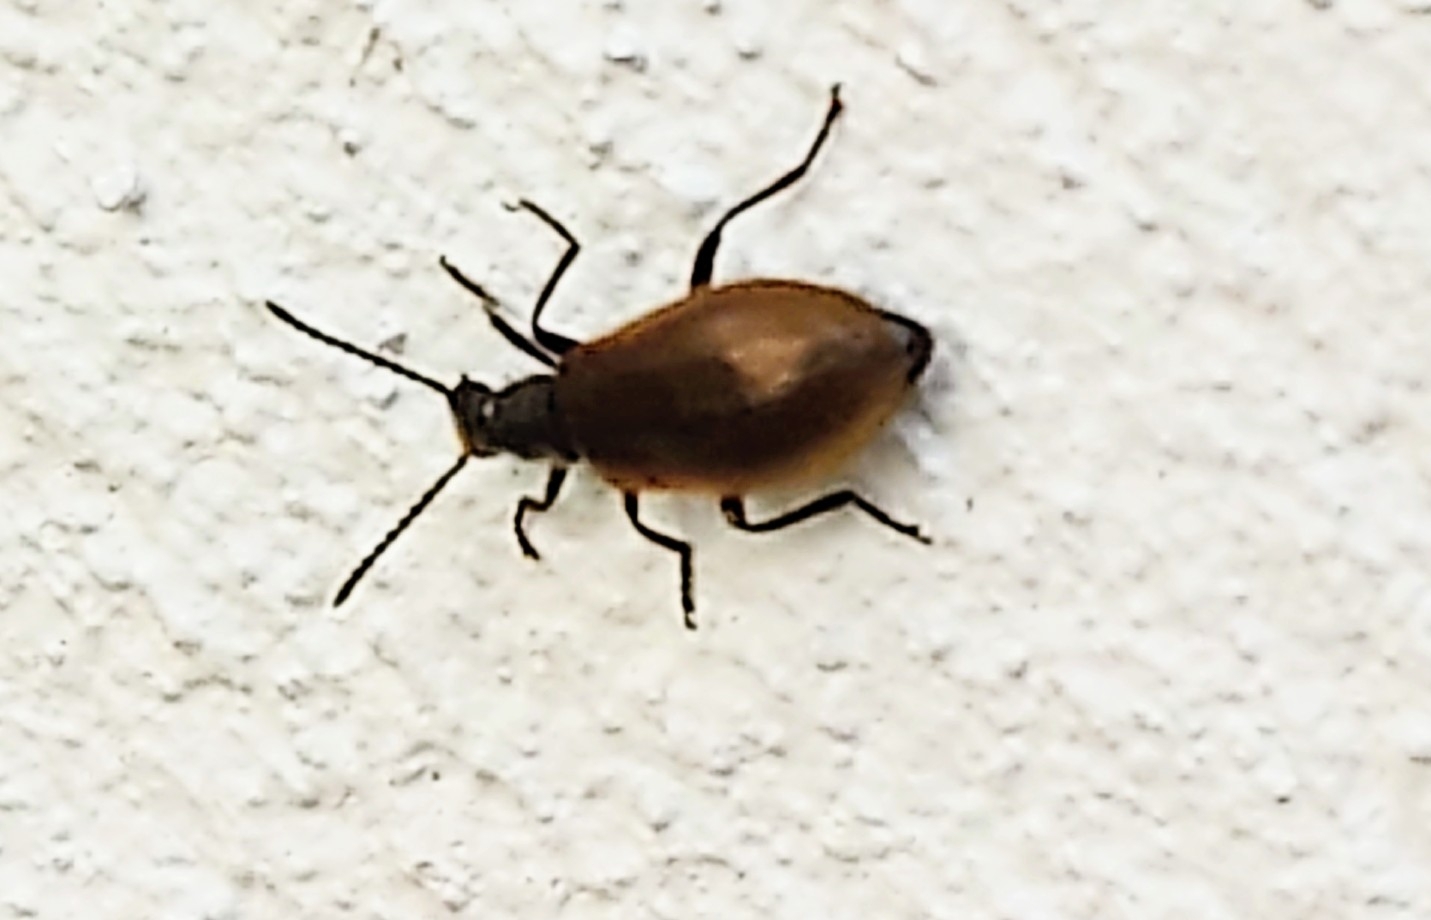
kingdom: Animalia
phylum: Arthropoda
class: Insecta
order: Coleoptera
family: Tenebrionidae
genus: Lagria
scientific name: Lagria hirta
